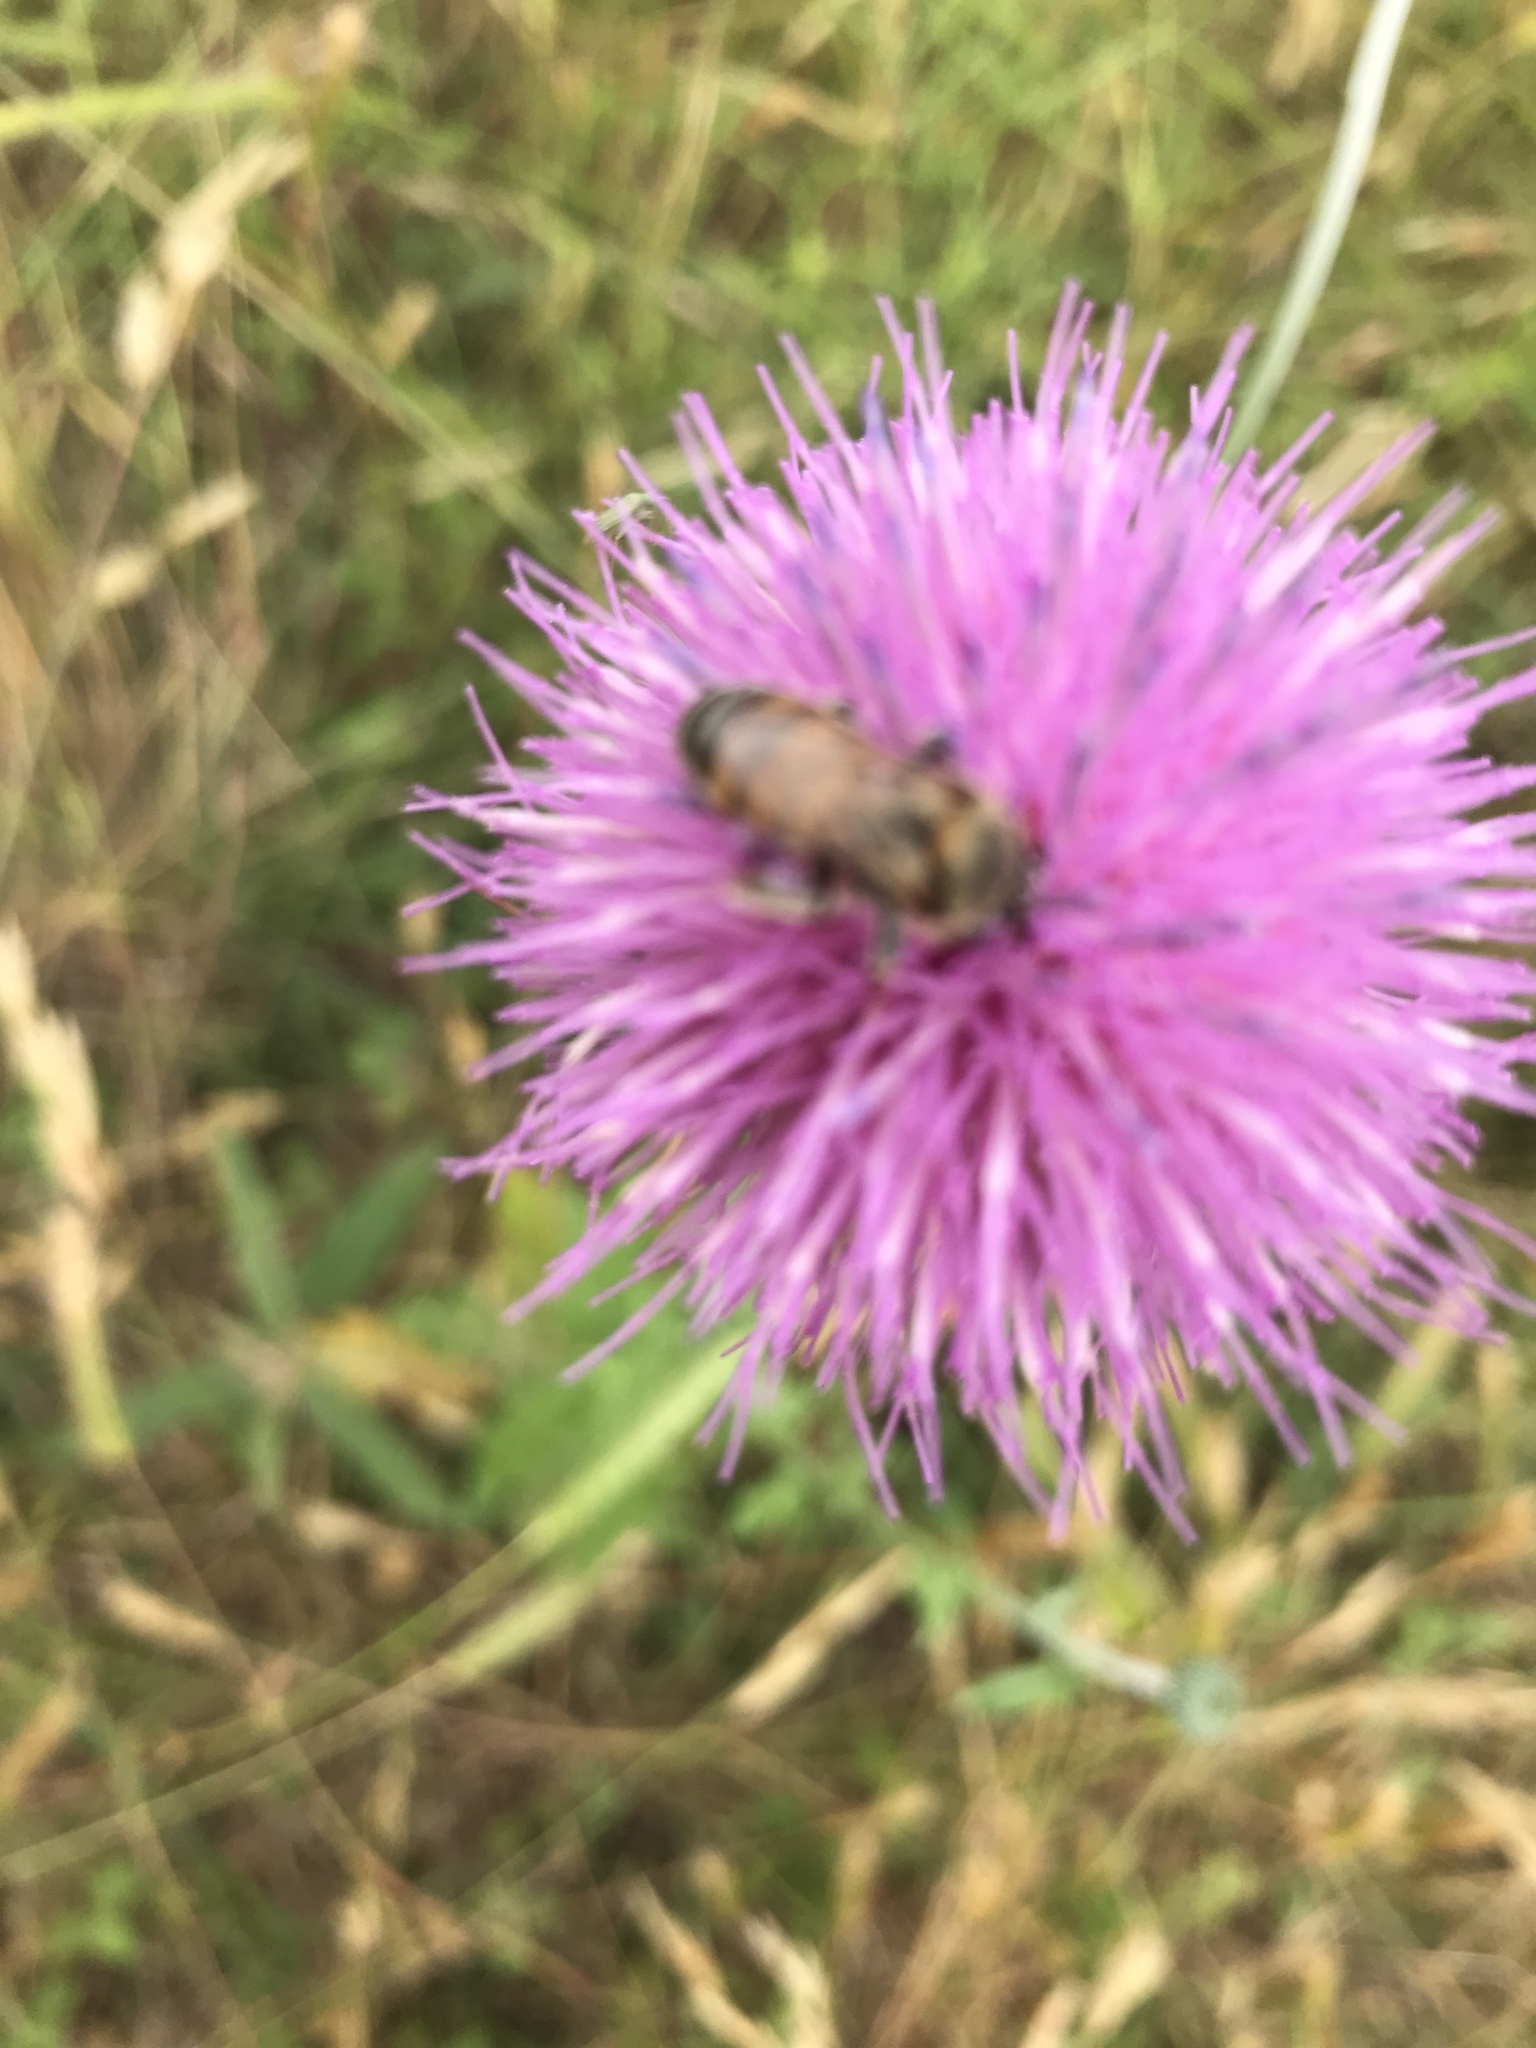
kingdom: Animalia
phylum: Arthropoda
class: Insecta
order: Hymenoptera
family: Apidae
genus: Apis
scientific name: Apis mellifera
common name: Honey bee
